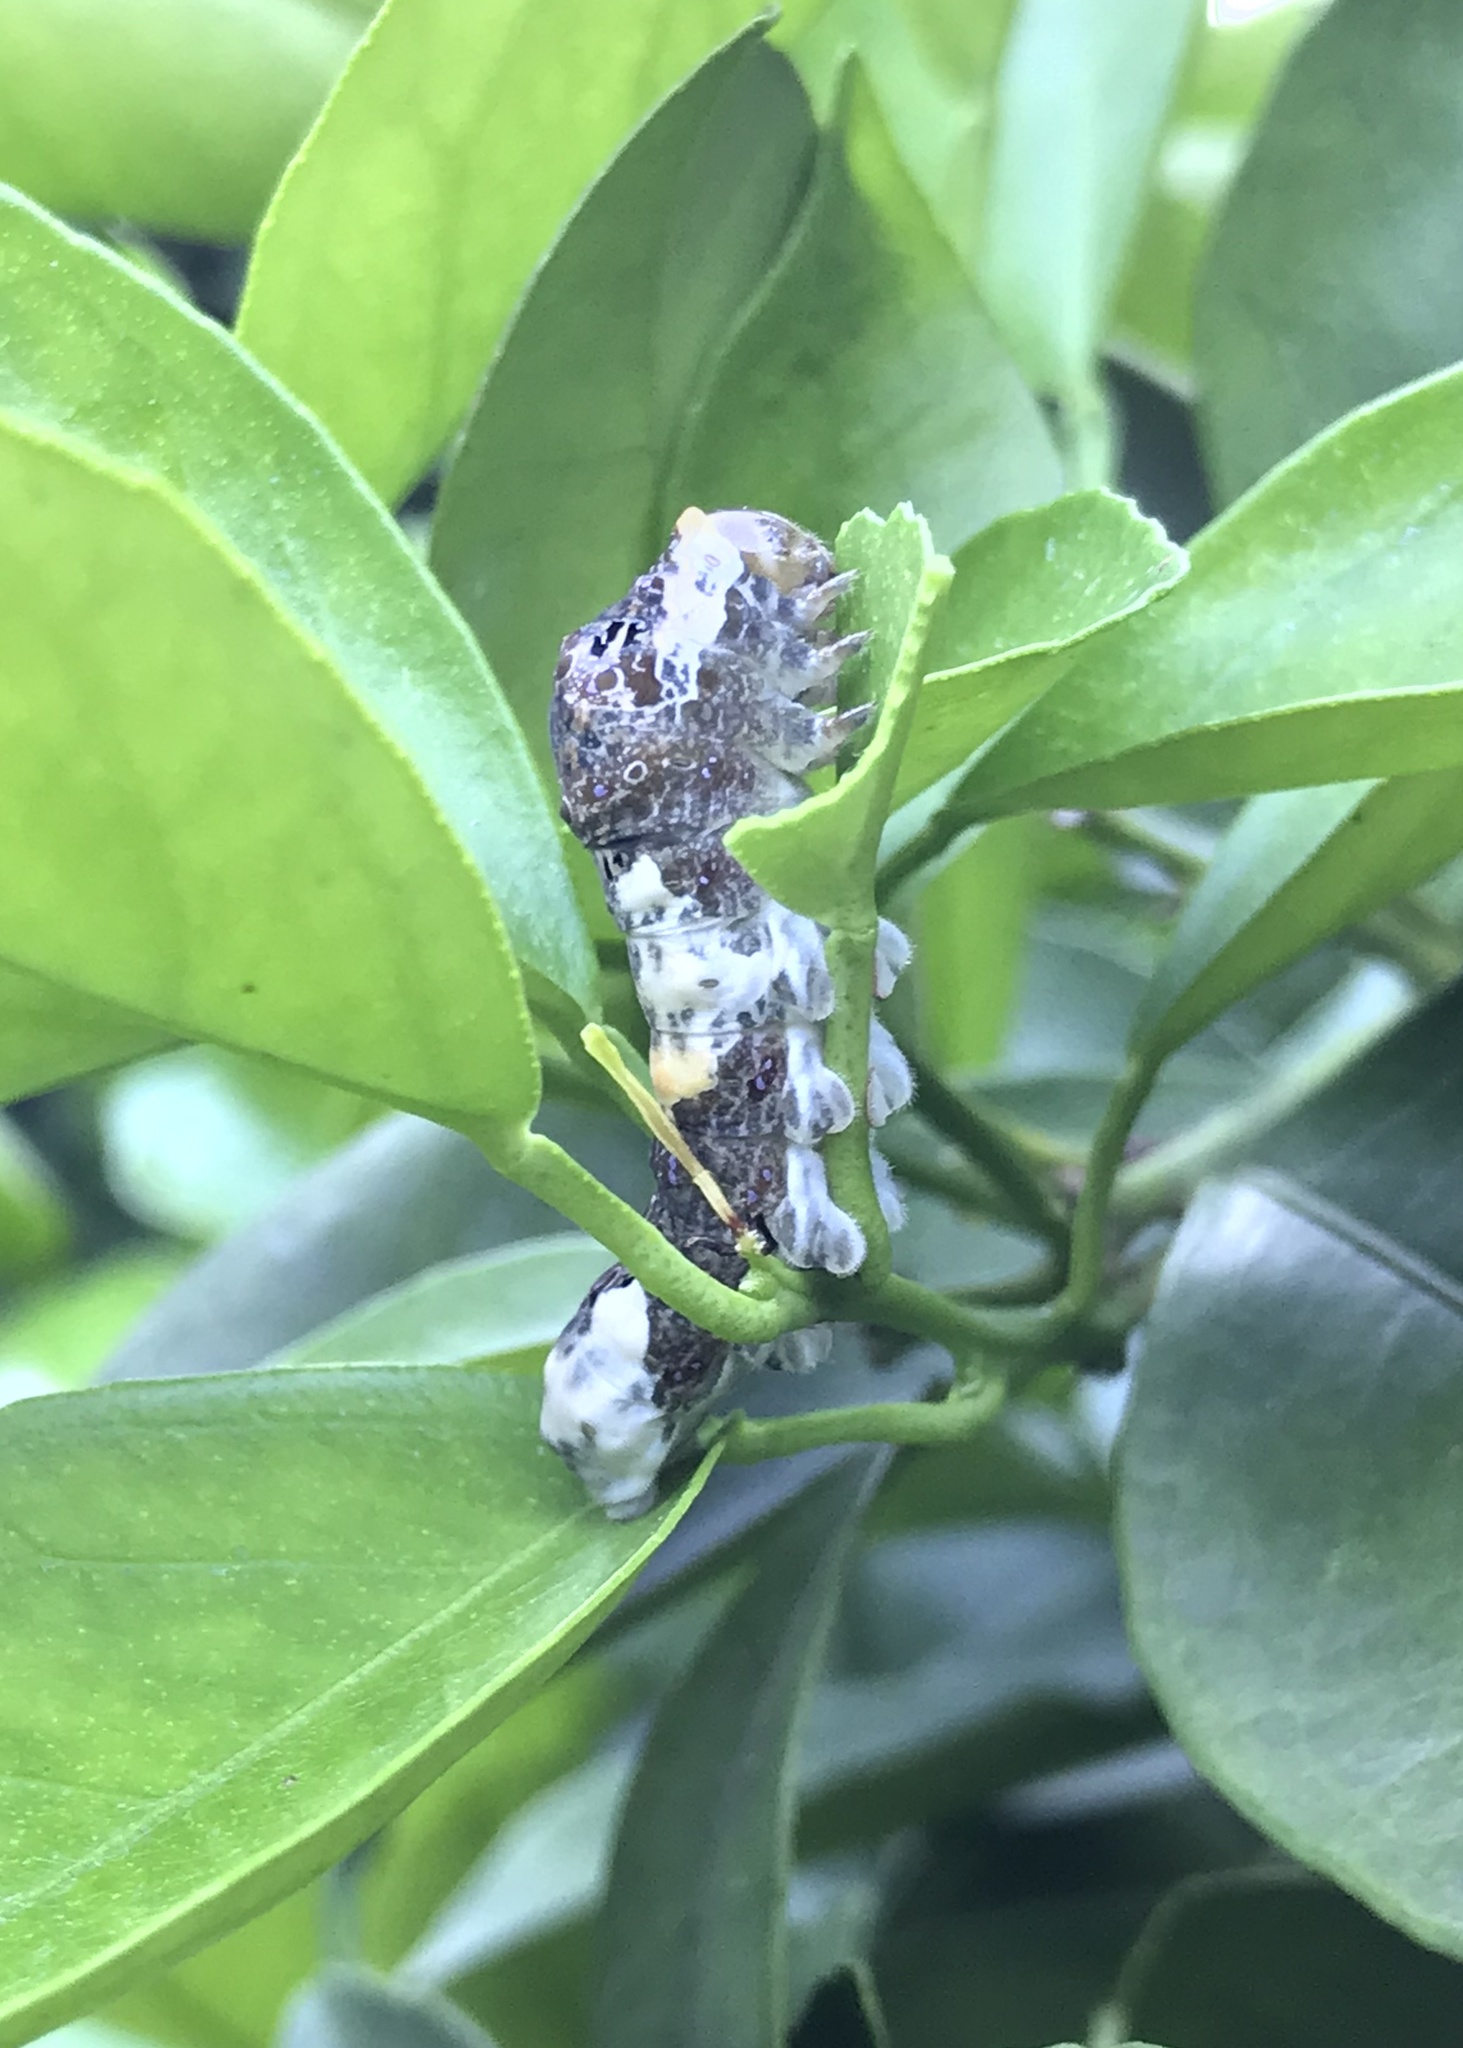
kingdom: Animalia
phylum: Arthropoda
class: Insecta
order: Lepidoptera
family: Papilionidae
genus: Papilio
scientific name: Papilio rumiko
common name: Western giant swallowtail
